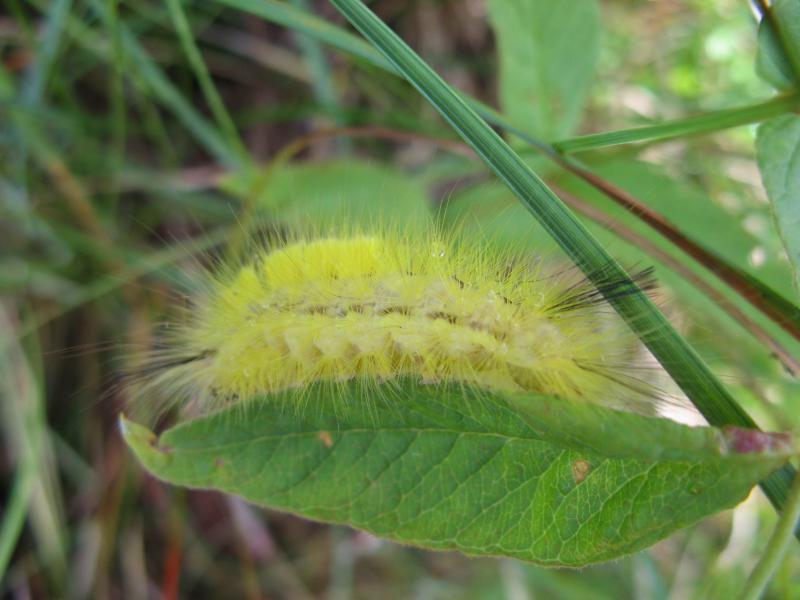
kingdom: Animalia
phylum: Arthropoda
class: Insecta
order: Lepidoptera
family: Erebidae
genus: Laelia
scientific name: Laelia coenosa
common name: Reed tussock
